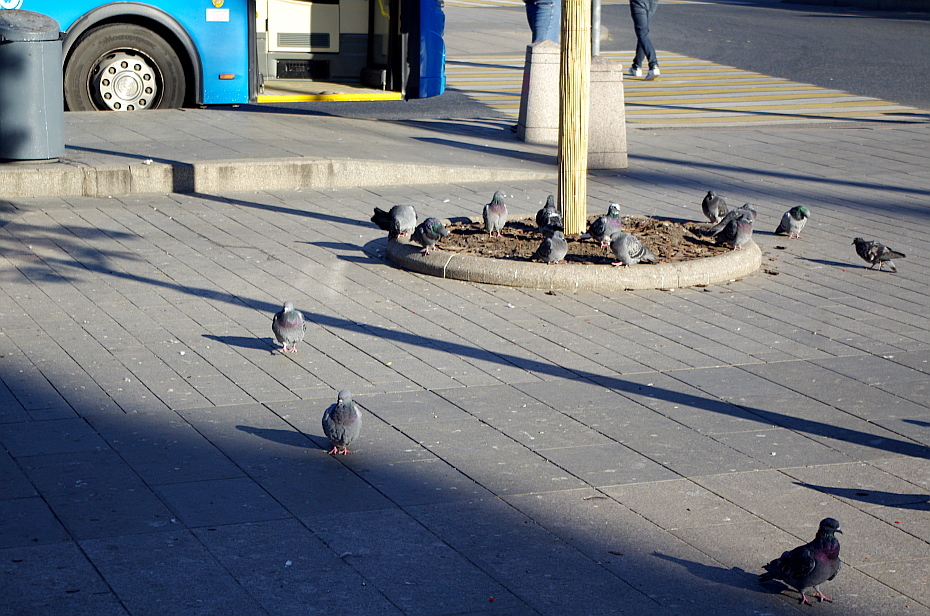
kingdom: Animalia
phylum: Chordata
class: Aves
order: Columbiformes
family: Columbidae
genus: Columba
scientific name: Columba livia
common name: Rock pigeon
